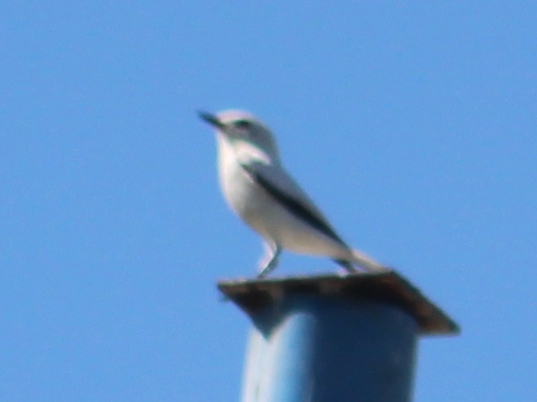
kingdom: Animalia
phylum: Chordata
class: Aves
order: Passeriformes
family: Tyrannidae
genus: Xolmis
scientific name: Xolmis irupero
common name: White monjita
